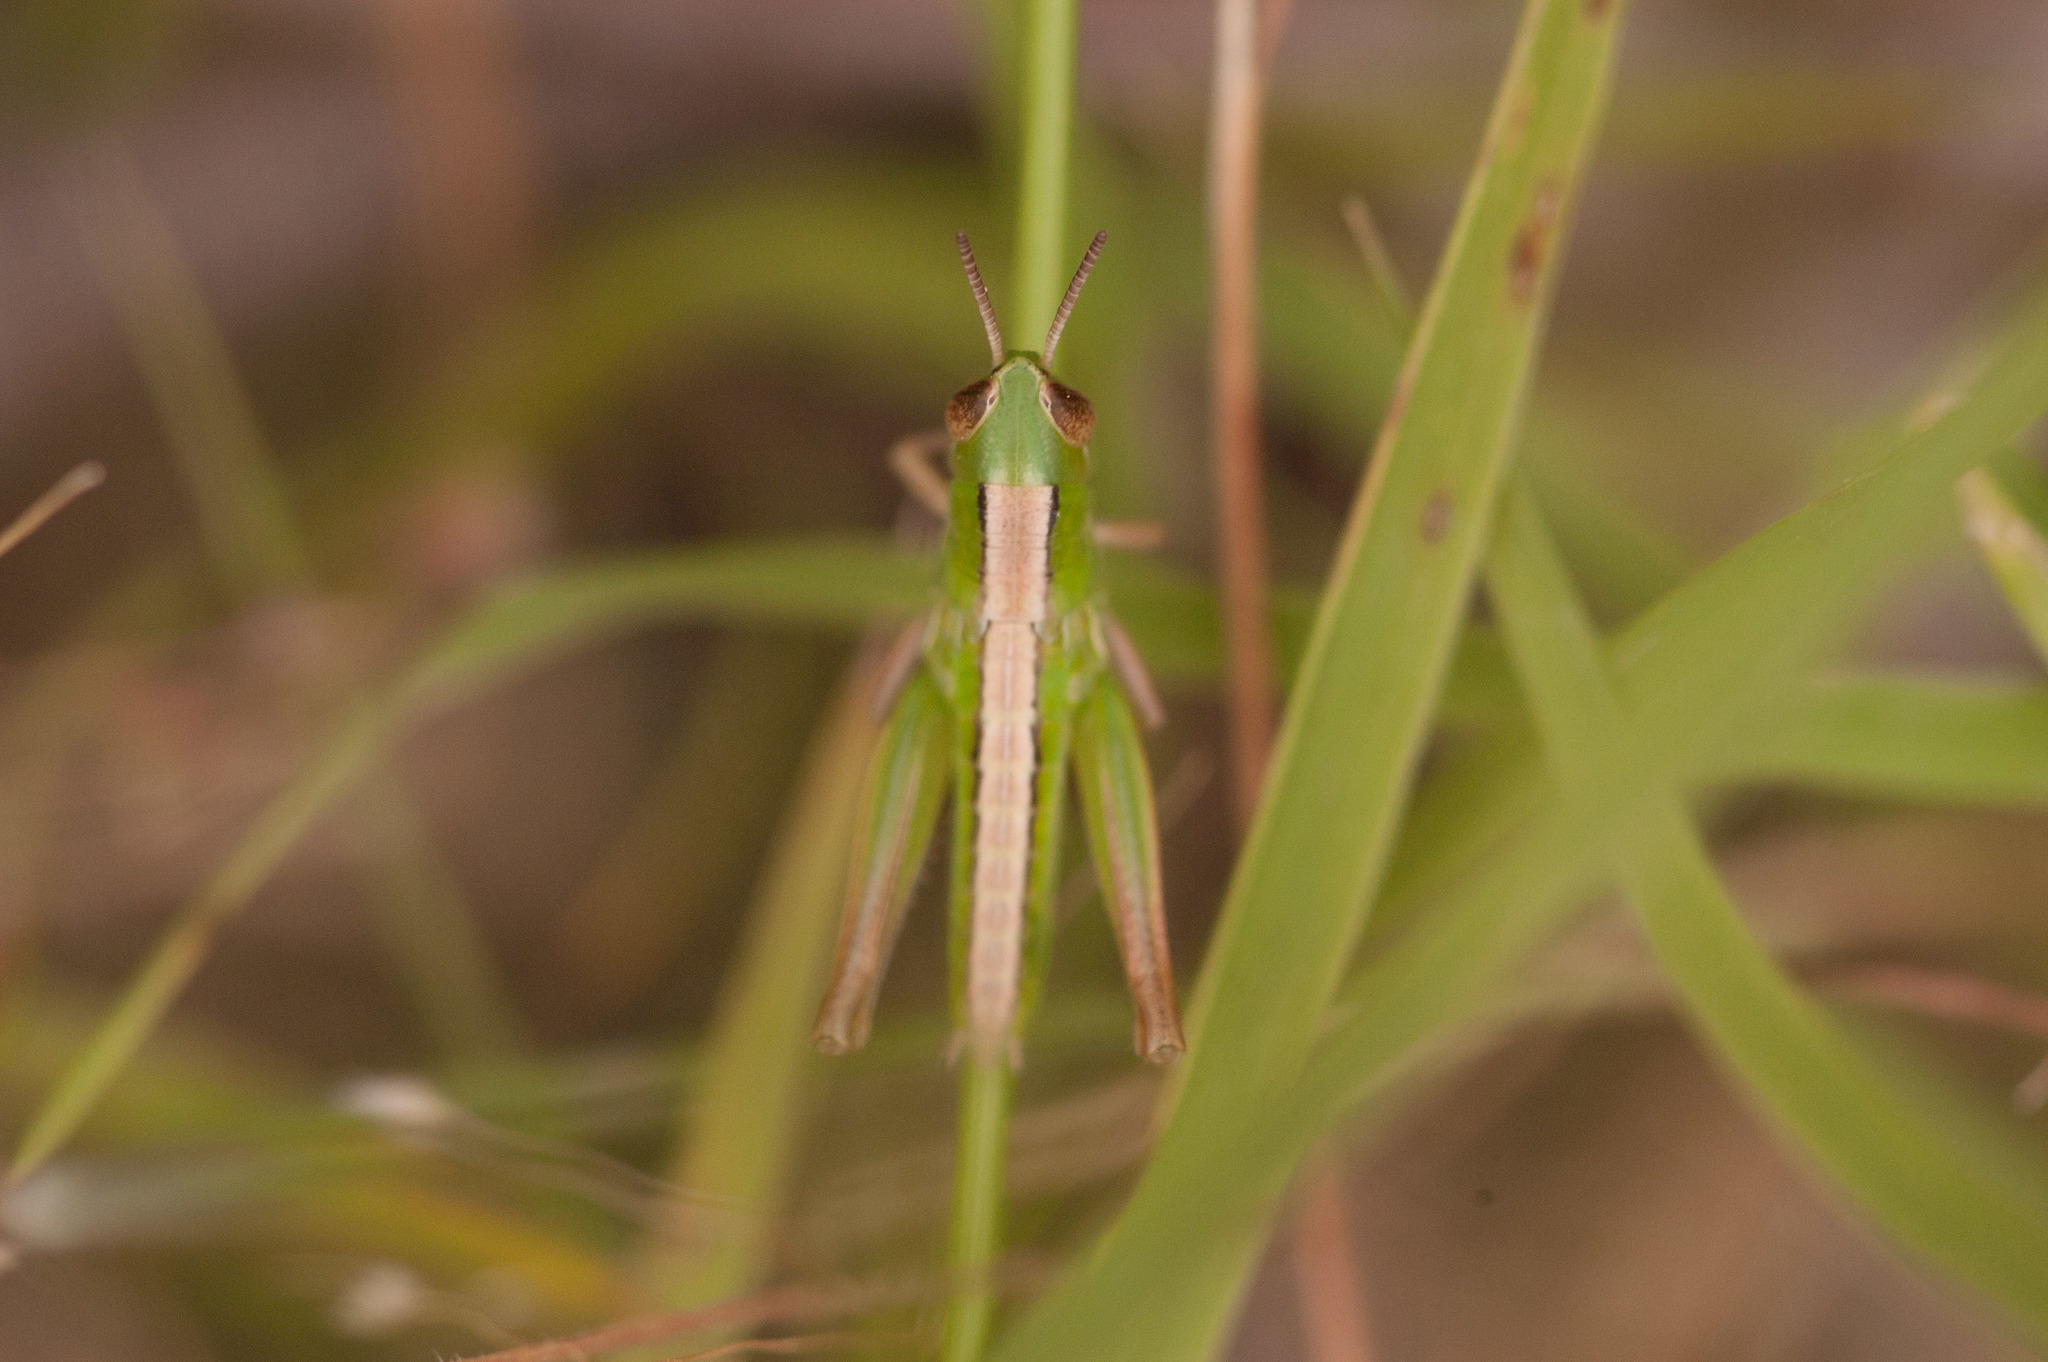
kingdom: Animalia
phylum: Arthropoda
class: Insecta
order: Orthoptera
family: Acrididae
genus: Praxibulus
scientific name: Praxibulus tectatus
